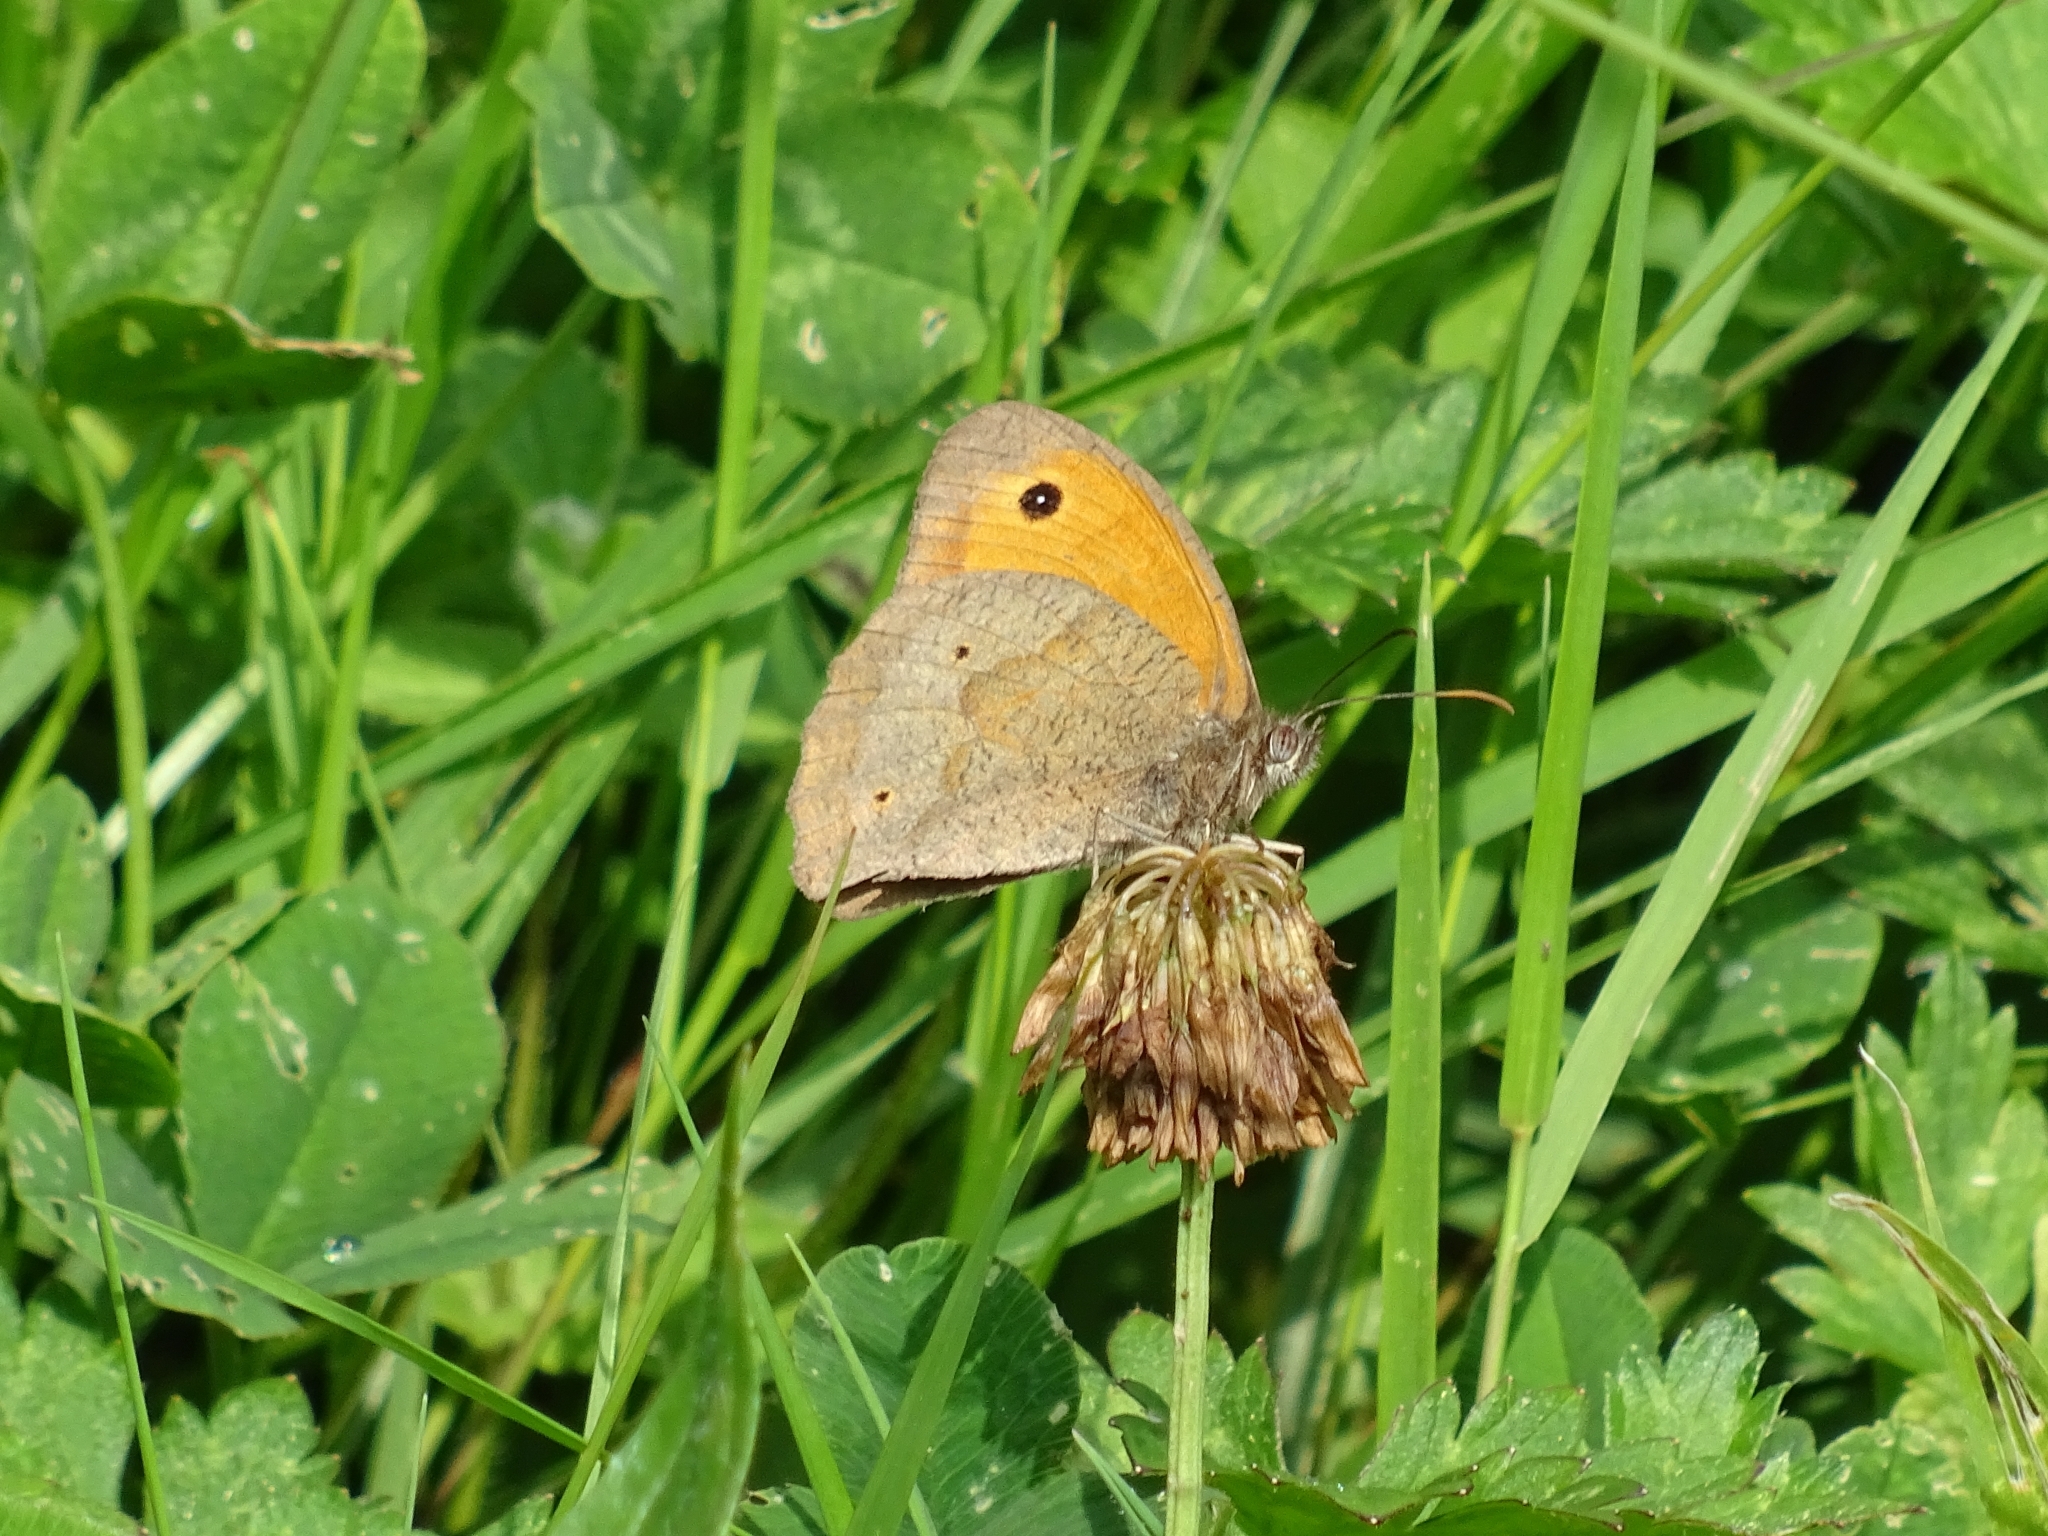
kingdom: Animalia
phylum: Arthropoda
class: Insecta
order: Lepidoptera
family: Nymphalidae
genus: Maniola
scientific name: Maniola jurtina
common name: Meadow brown
